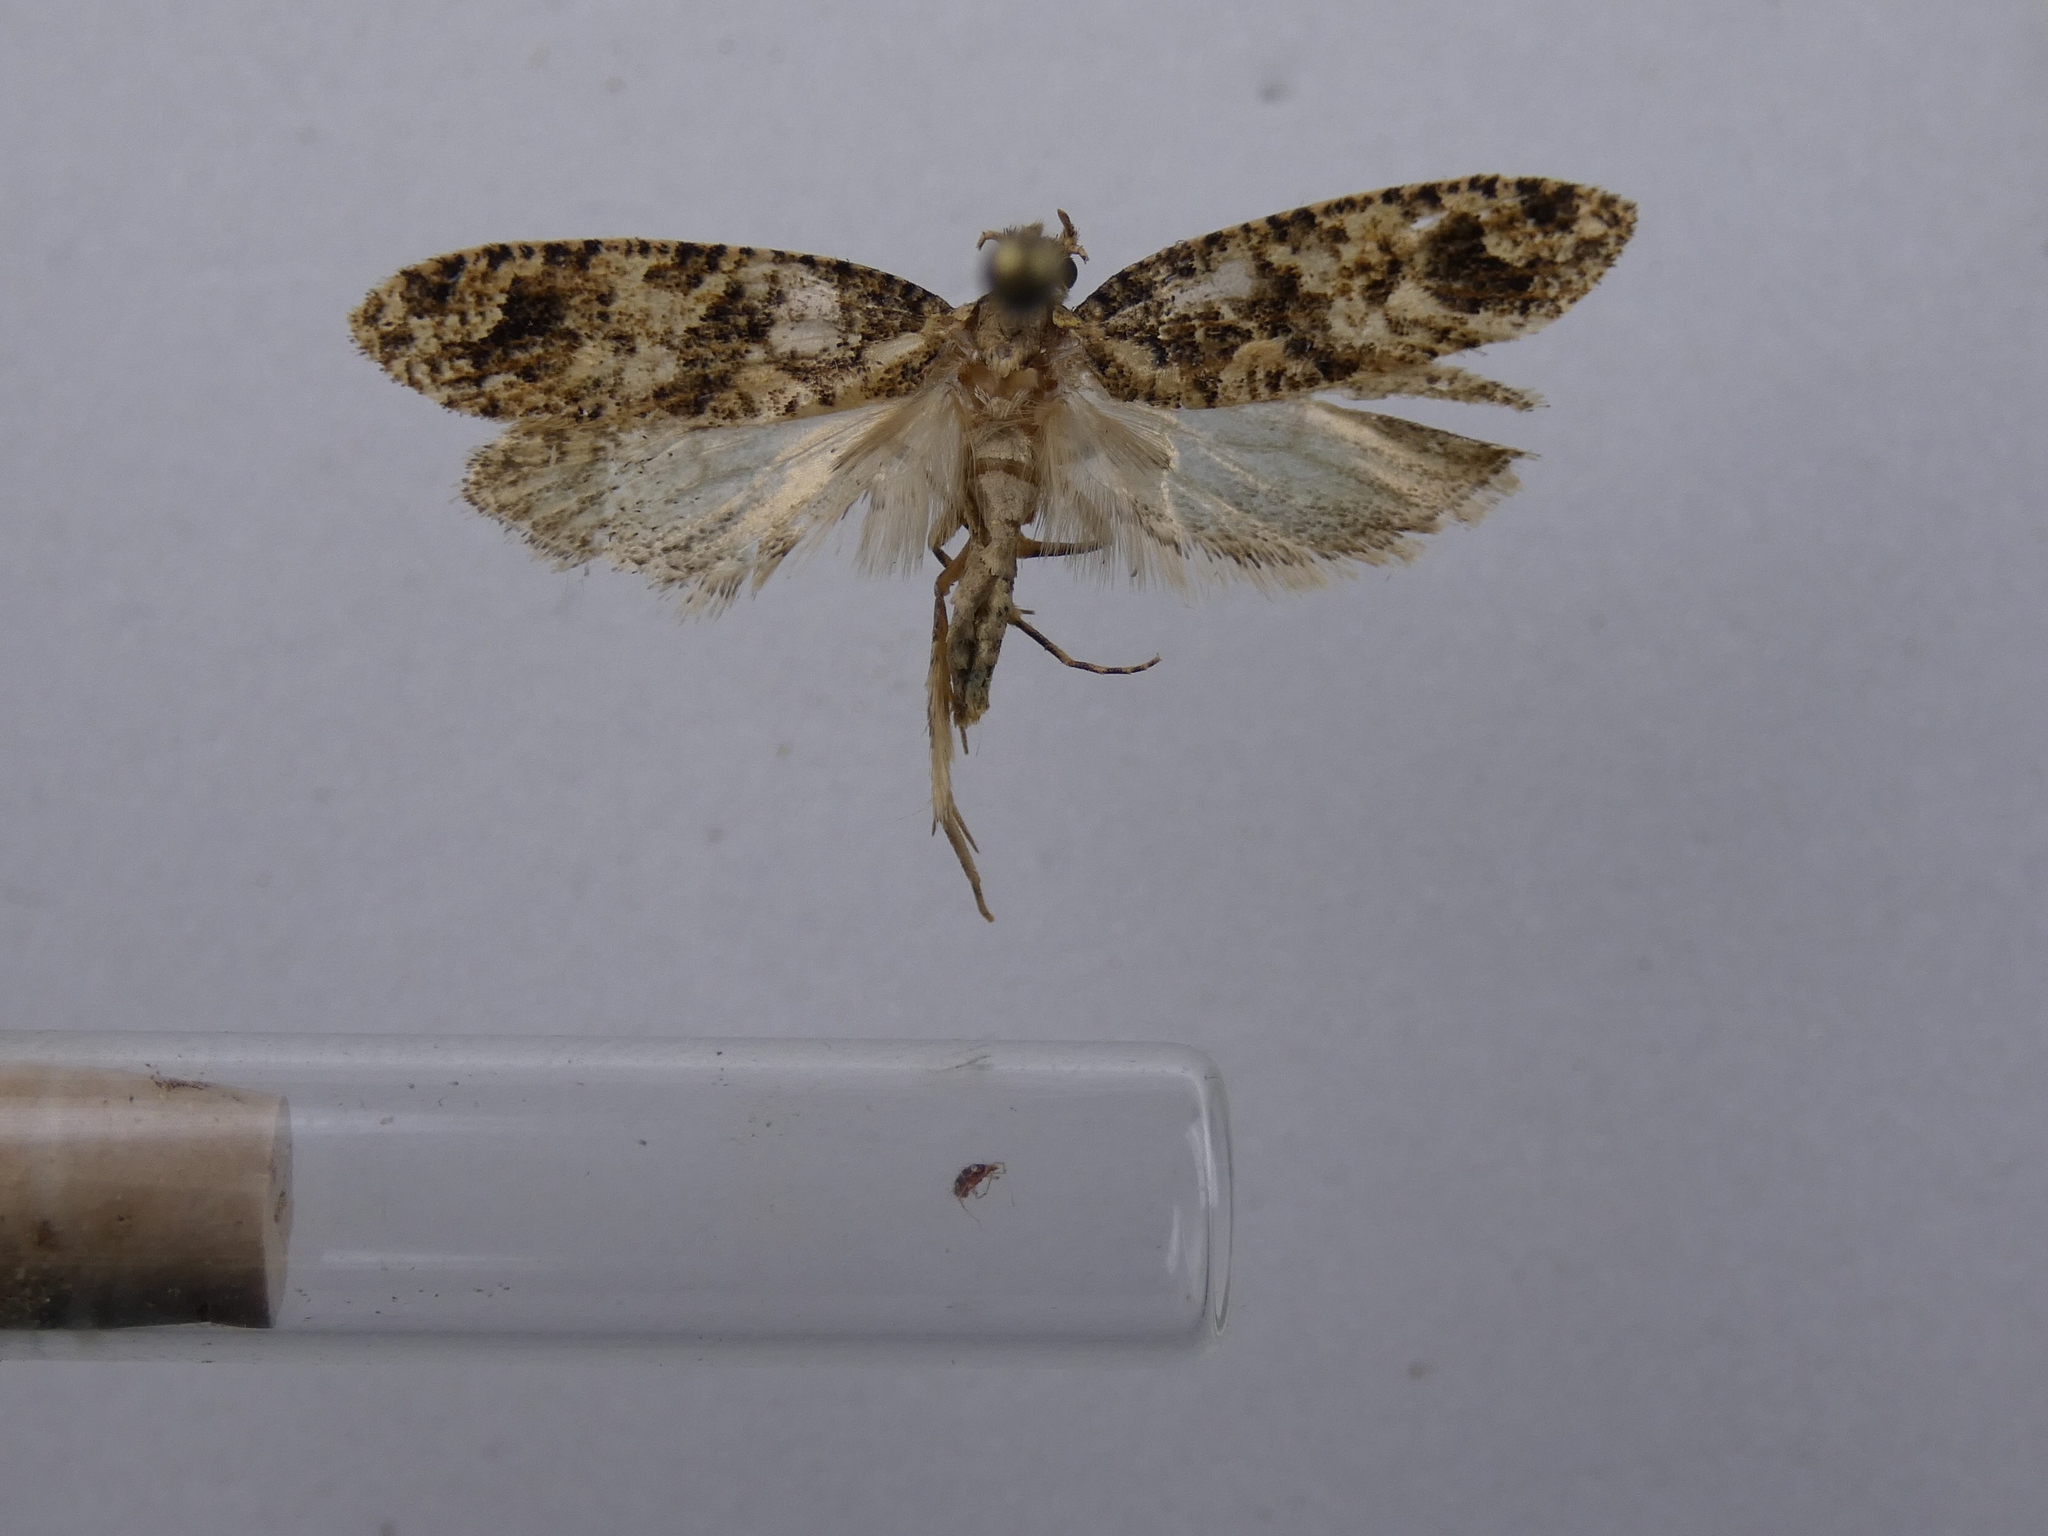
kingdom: Animalia
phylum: Arthropoda
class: Insecta
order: Lepidoptera
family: Tineidae
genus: Lysiphragma
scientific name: Lysiphragma epixyla
